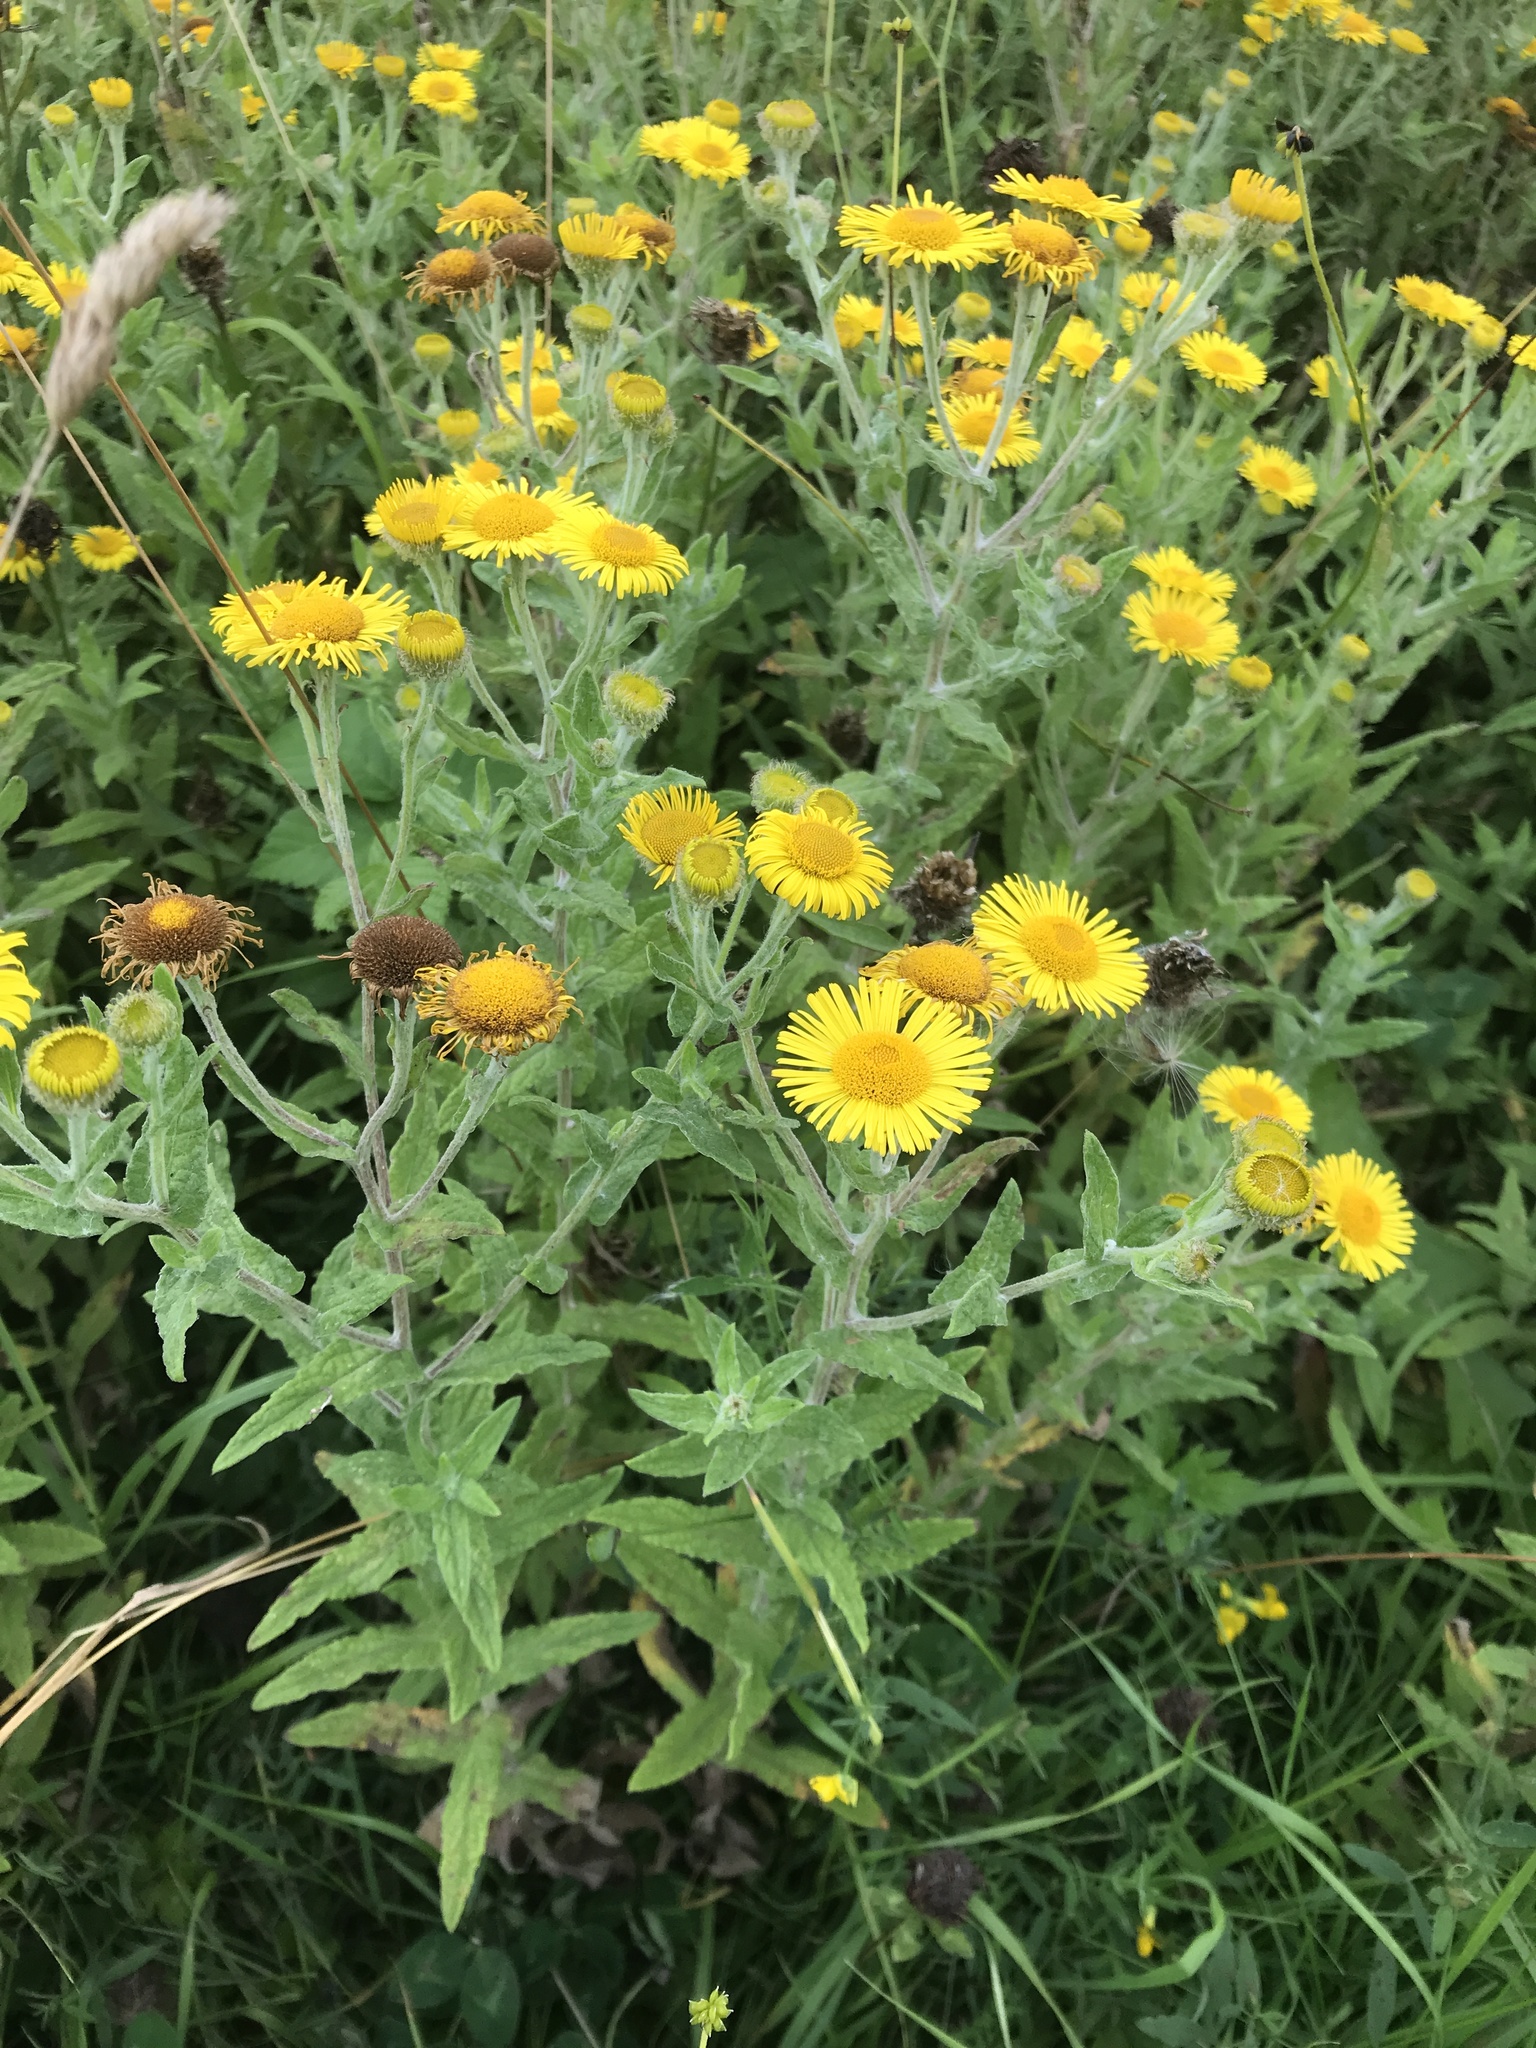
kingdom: Plantae
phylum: Tracheophyta
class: Magnoliopsida
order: Asterales
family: Asteraceae
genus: Pulicaria
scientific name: Pulicaria dysenterica
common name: Common fleabane
